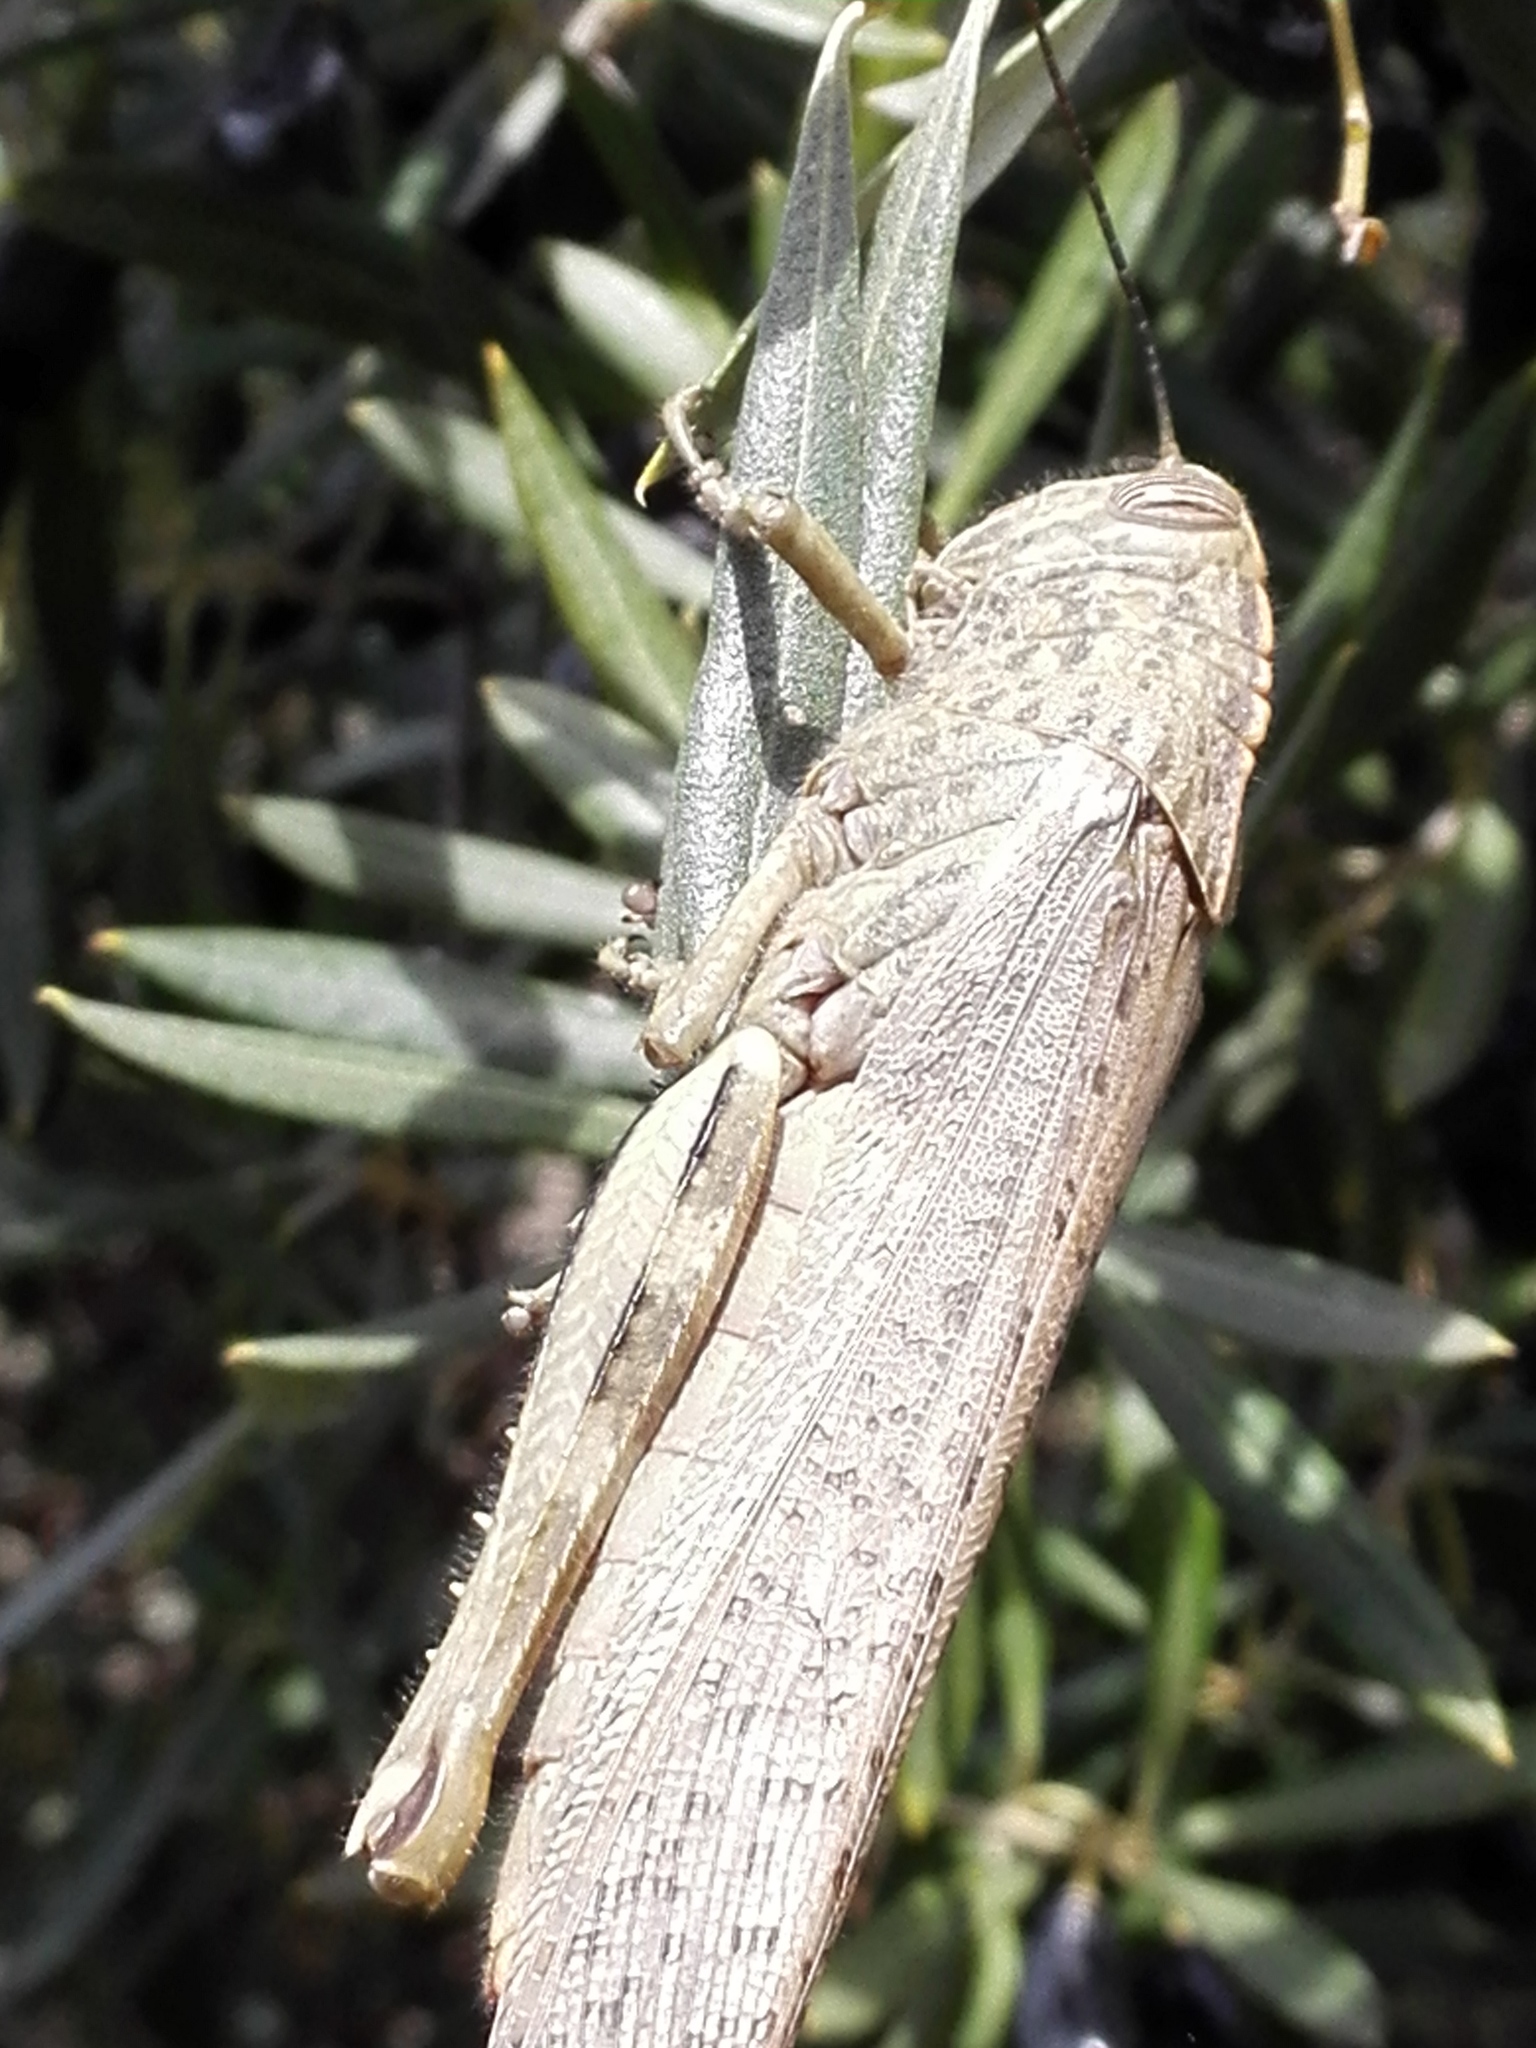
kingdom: Animalia
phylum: Arthropoda
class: Insecta
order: Orthoptera
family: Acrididae
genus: Anacridium
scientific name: Anacridium aegyptium
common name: Egyptian grasshopper
